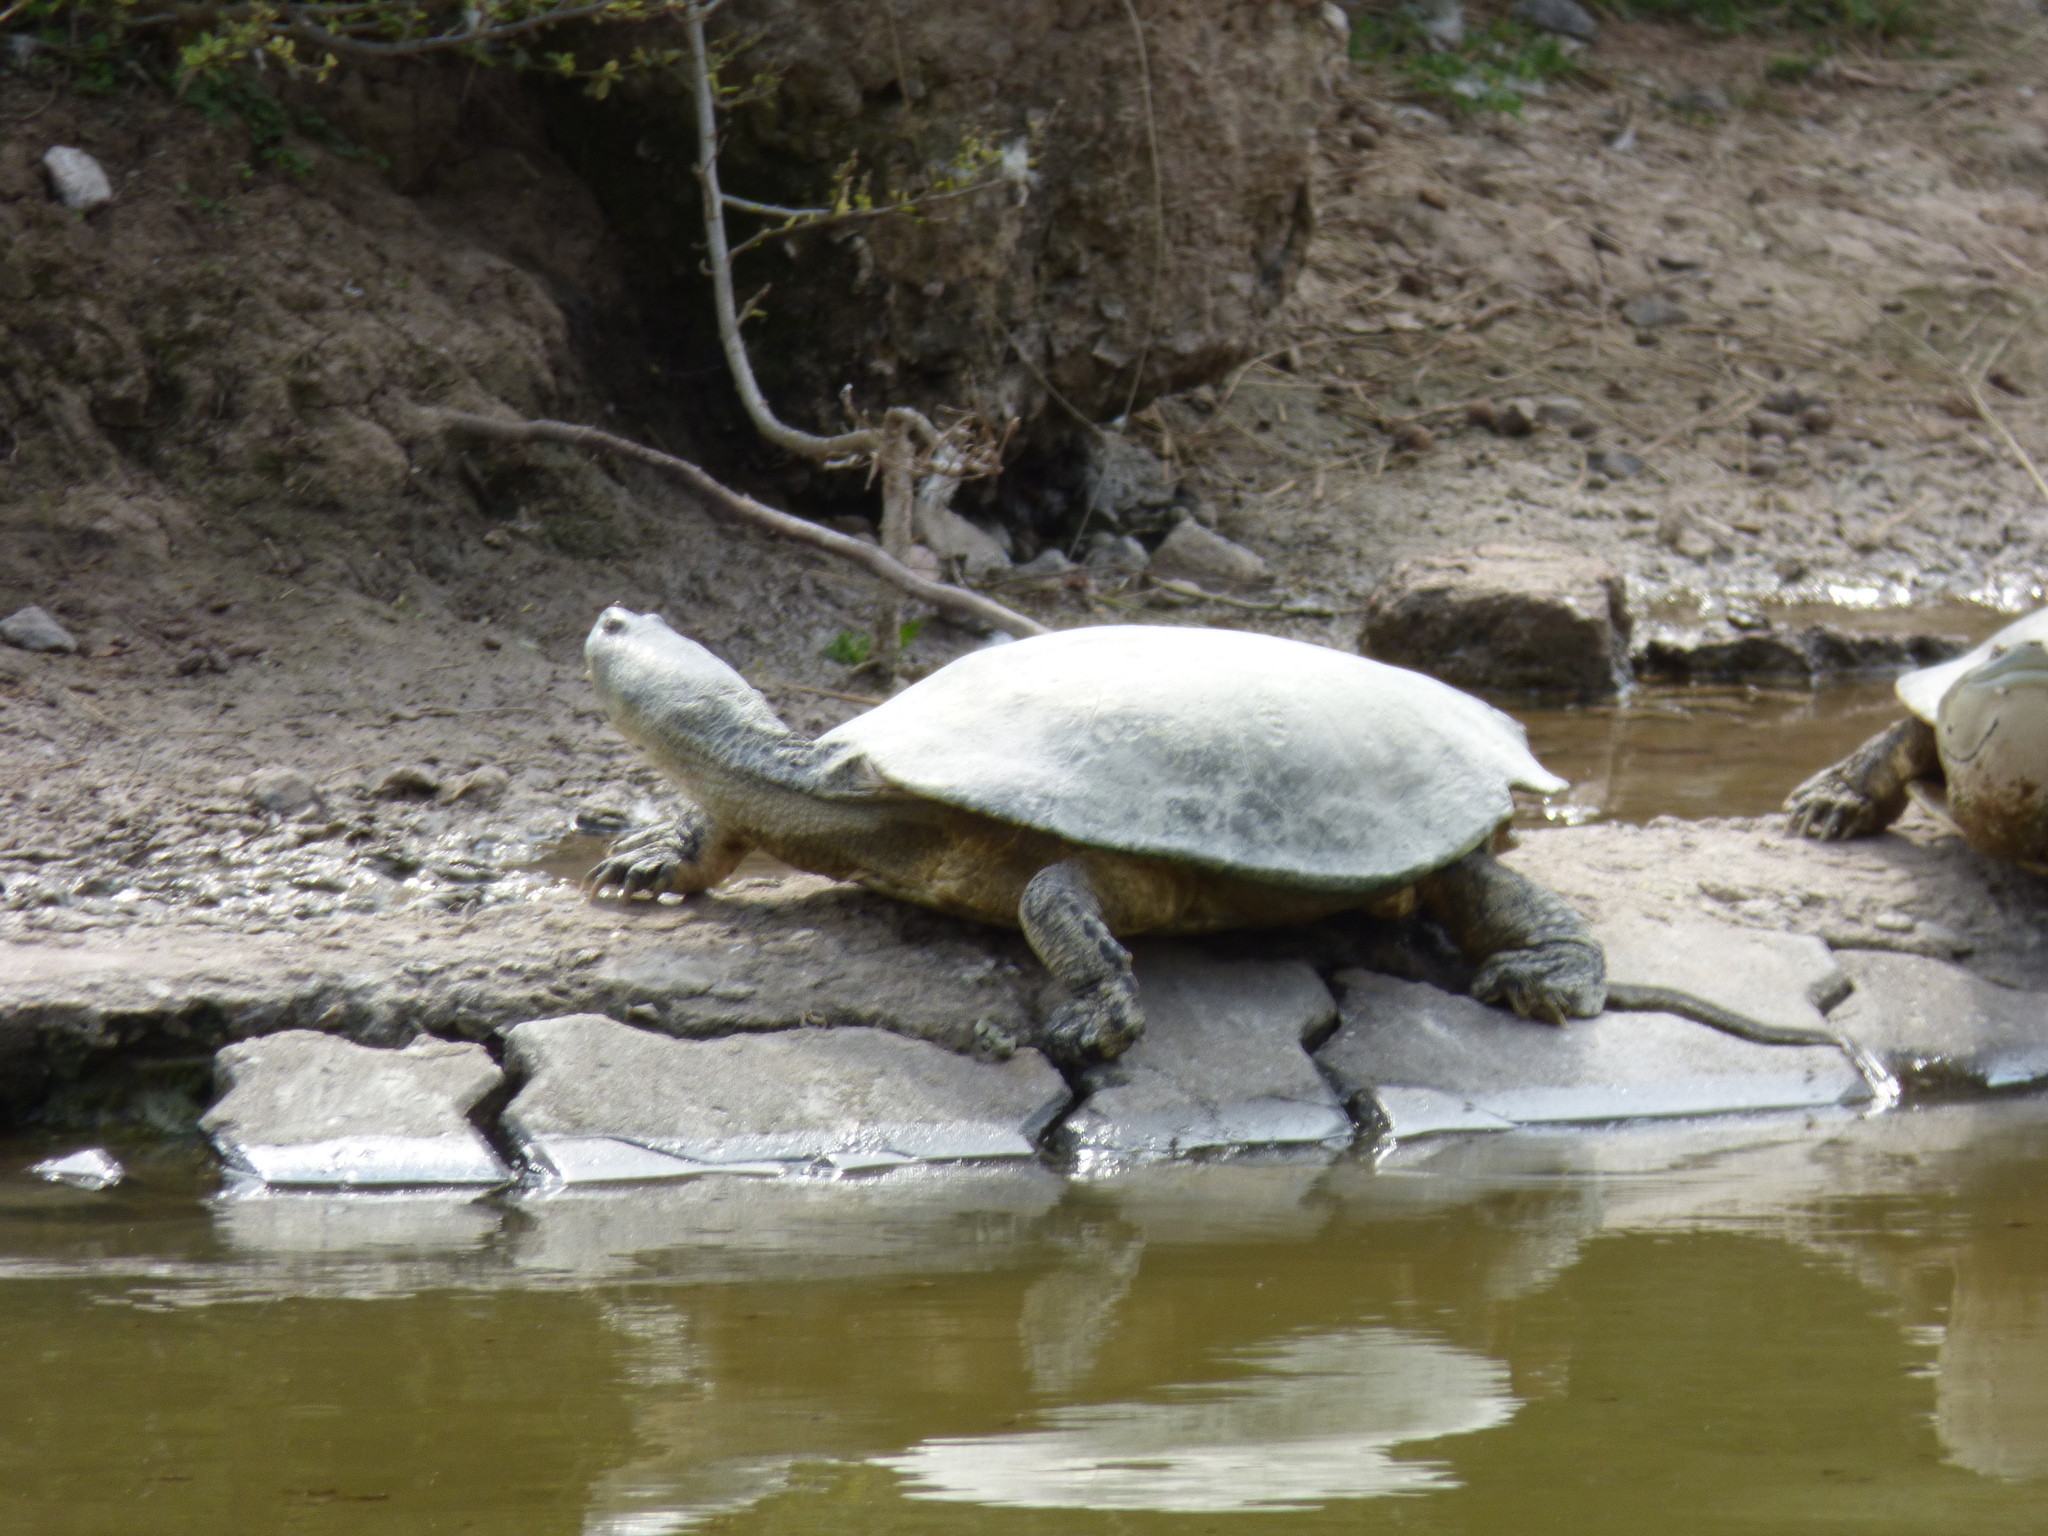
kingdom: Animalia
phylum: Chordata
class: Testudines
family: Chelidae
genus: Phrynops
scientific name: Phrynops hilarii
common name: Side-necked turtle of saint hillaire
